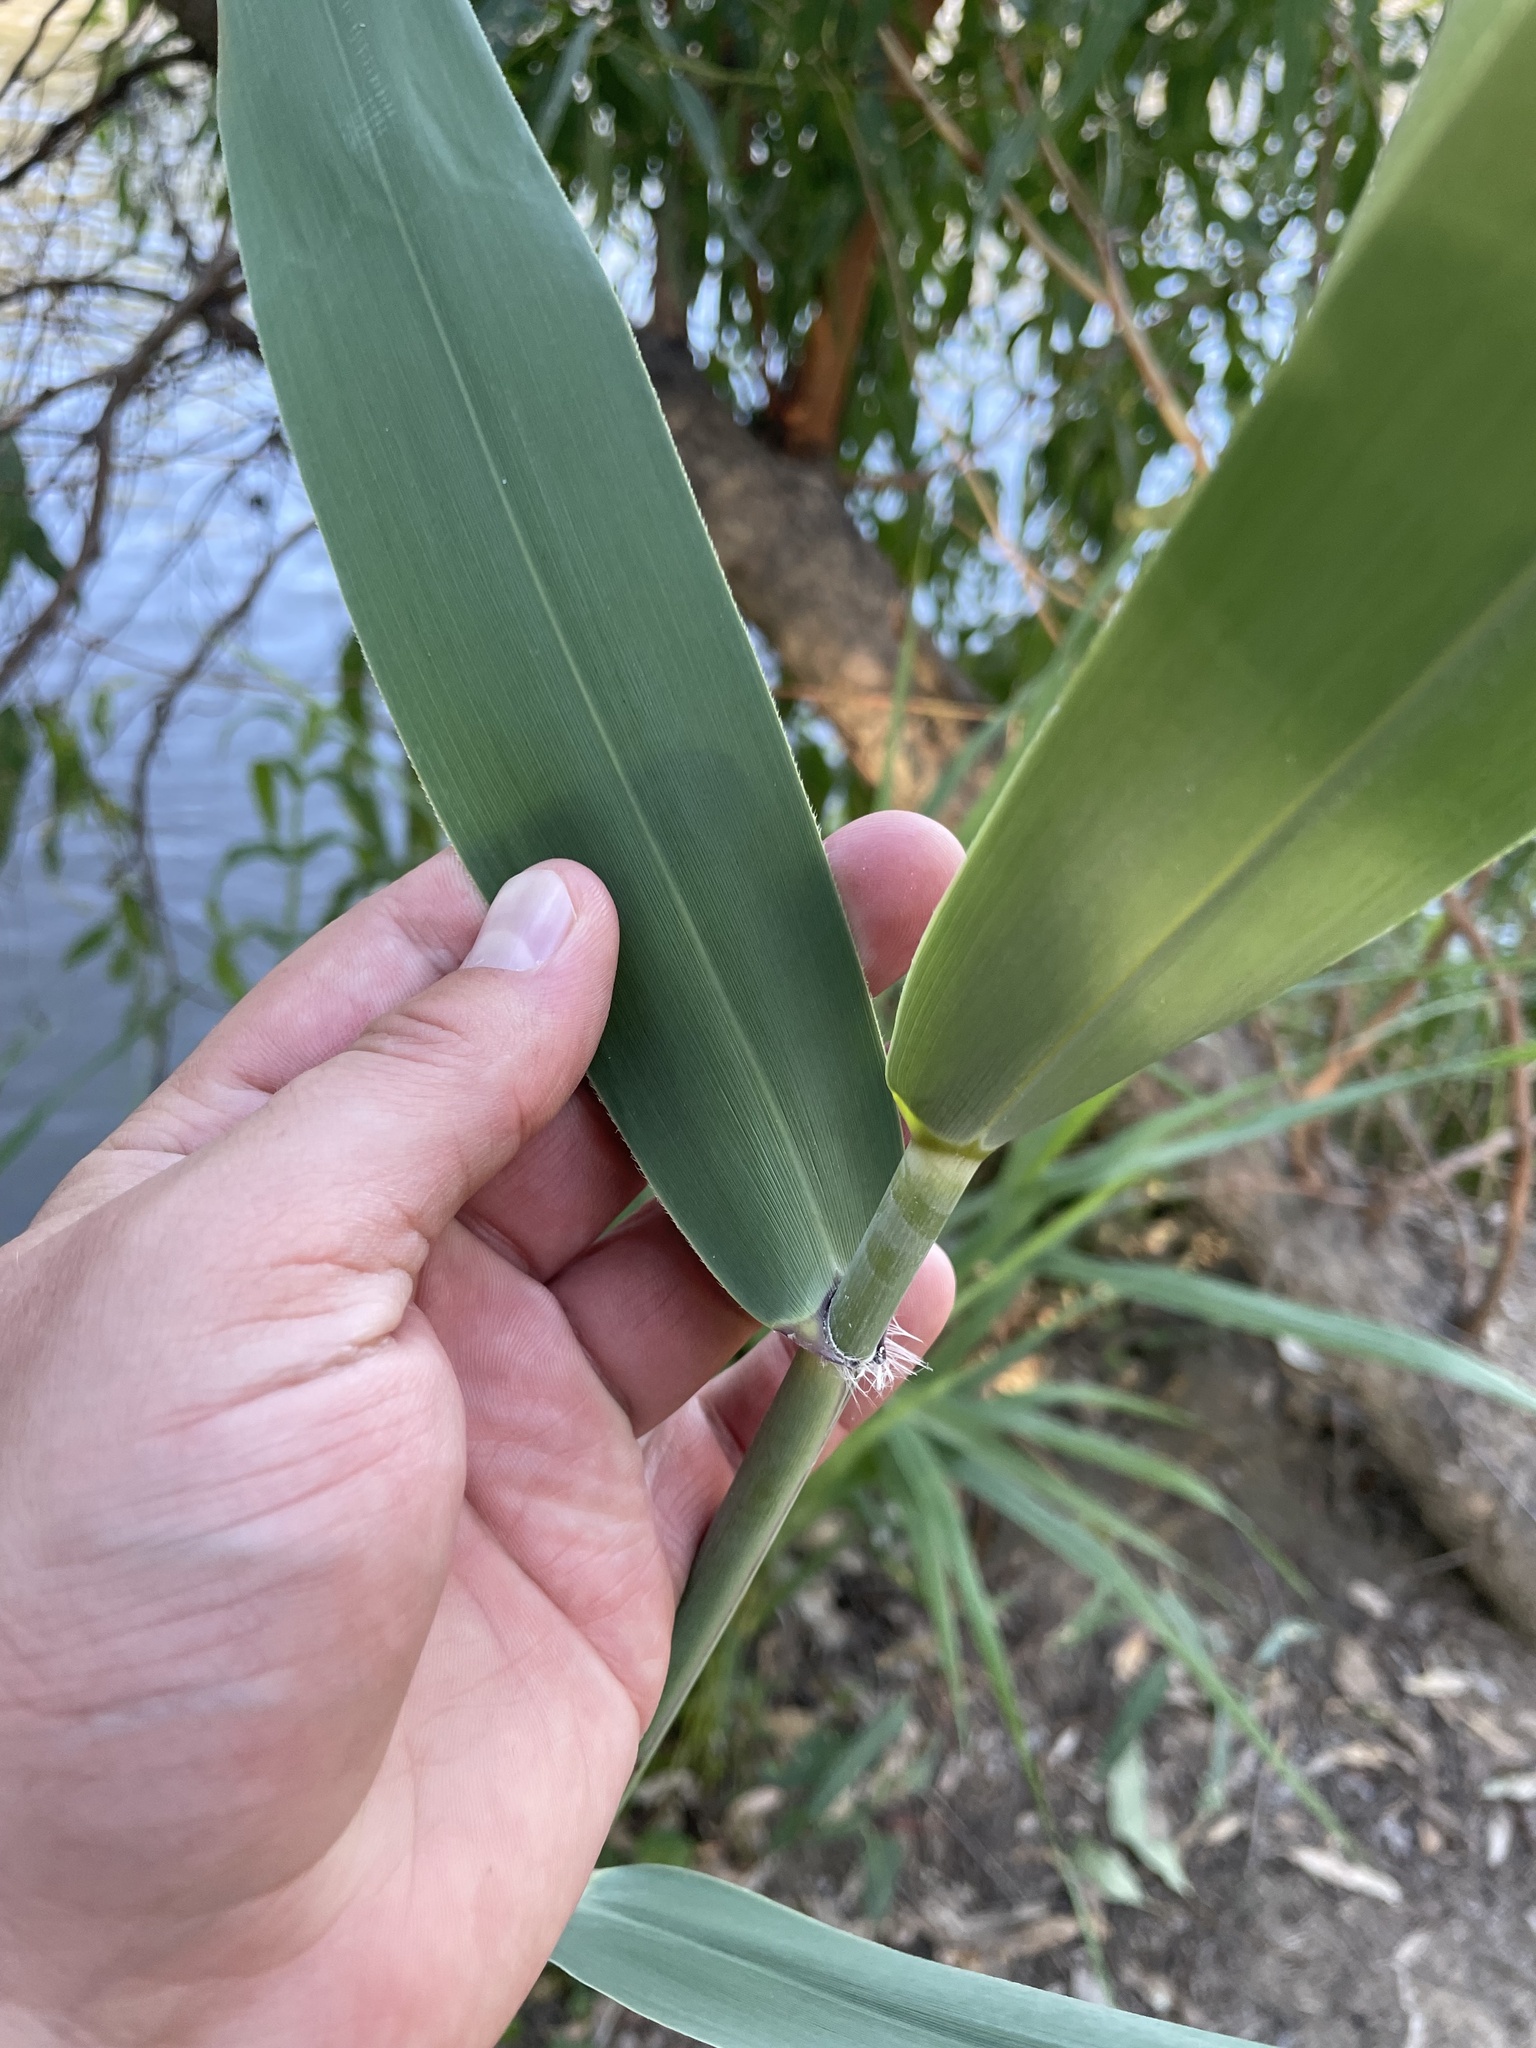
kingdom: Plantae
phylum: Tracheophyta
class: Liliopsida
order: Poales
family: Poaceae
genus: Phragmites
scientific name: Phragmites australis
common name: Common reed
